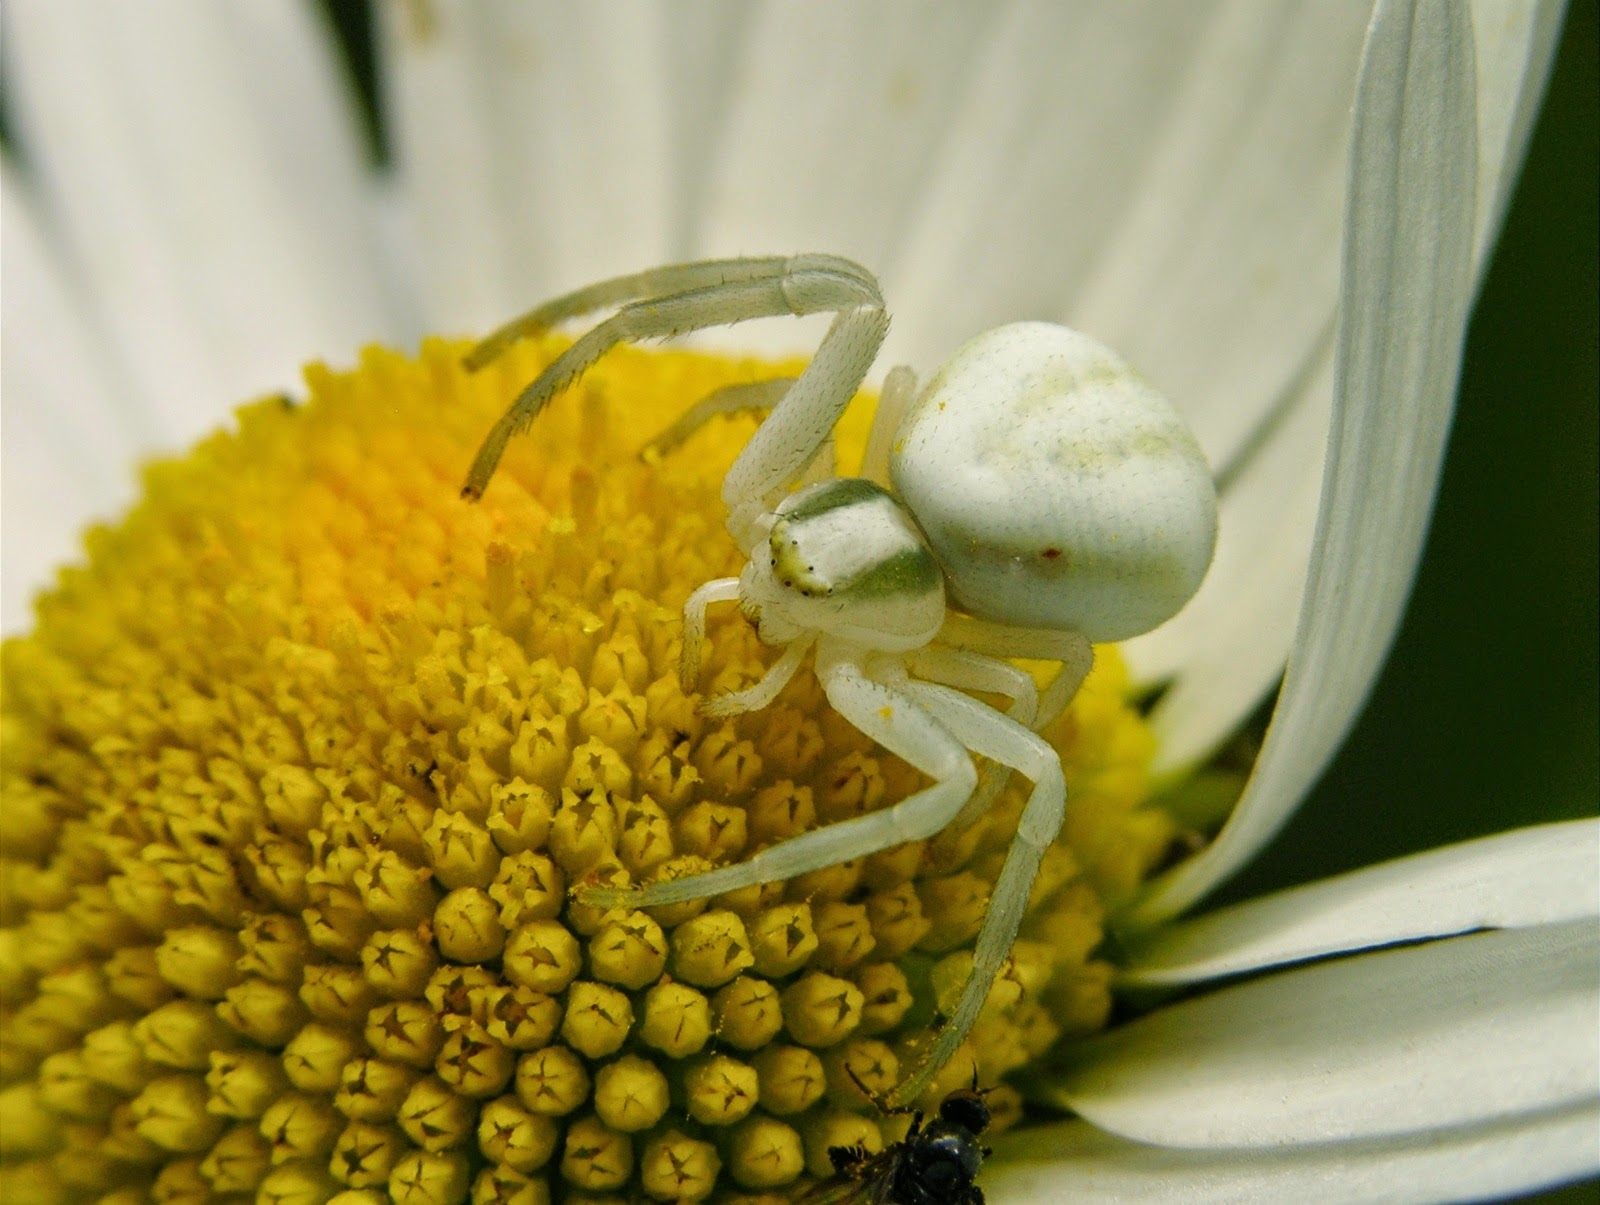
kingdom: Animalia
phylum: Arthropoda
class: Arachnida
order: Araneae
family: Thomisidae
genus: Misumena
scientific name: Misumena vatia
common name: Goldenrod crab spider
